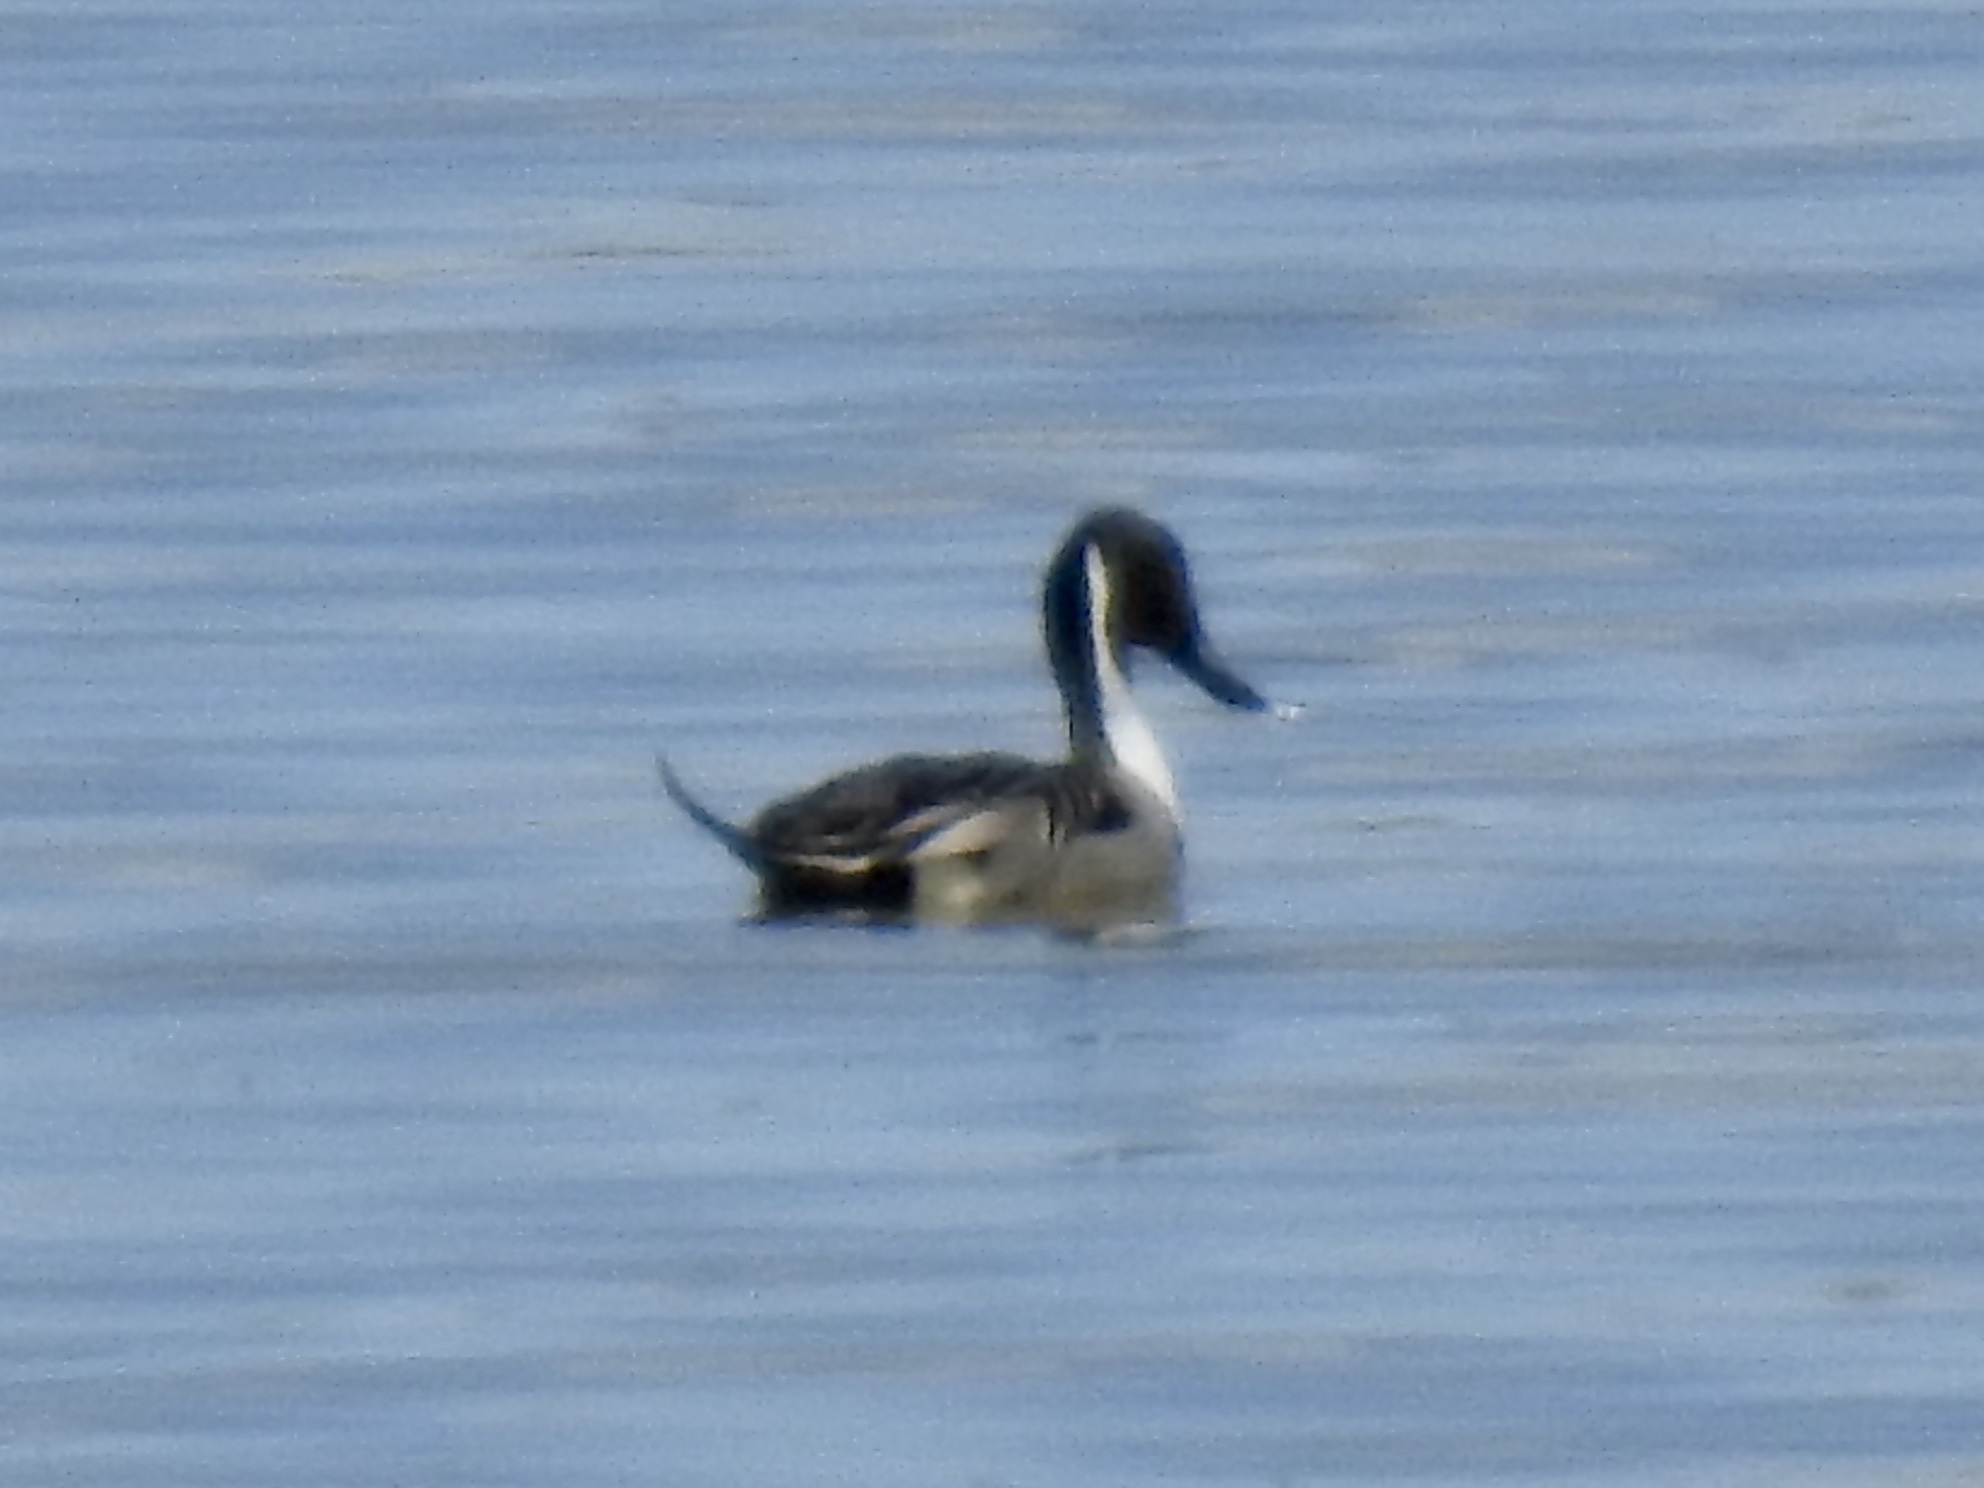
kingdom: Animalia
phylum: Chordata
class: Aves
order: Anseriformes
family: Anatidae
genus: Anas
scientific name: Anas acuta
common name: Northern pintail
